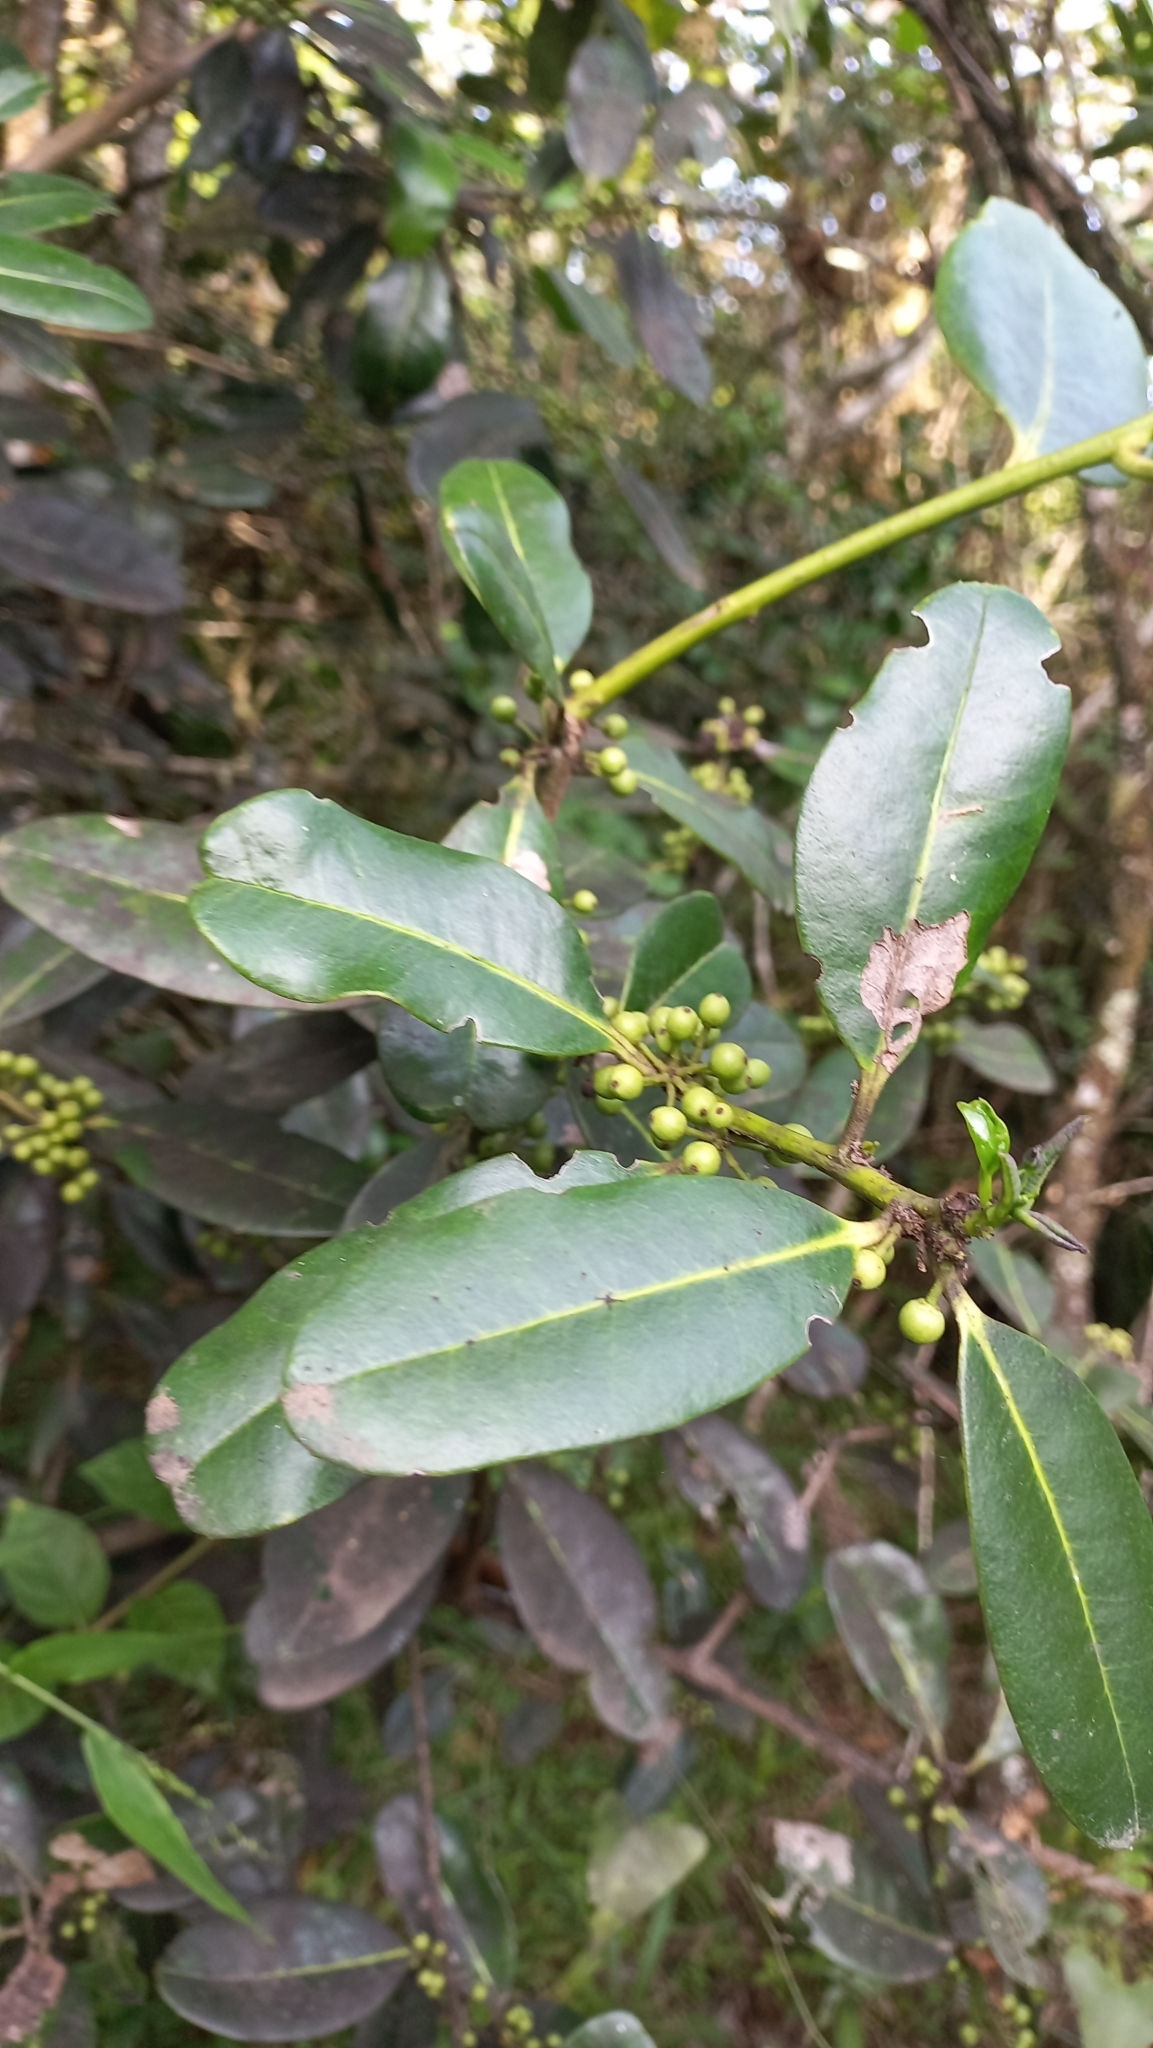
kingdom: Plantae
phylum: Tracheophyta
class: Magnoliopsida
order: Aquifoliales
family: Aquifoliaceae
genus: Ilex
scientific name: Ilex theezans
